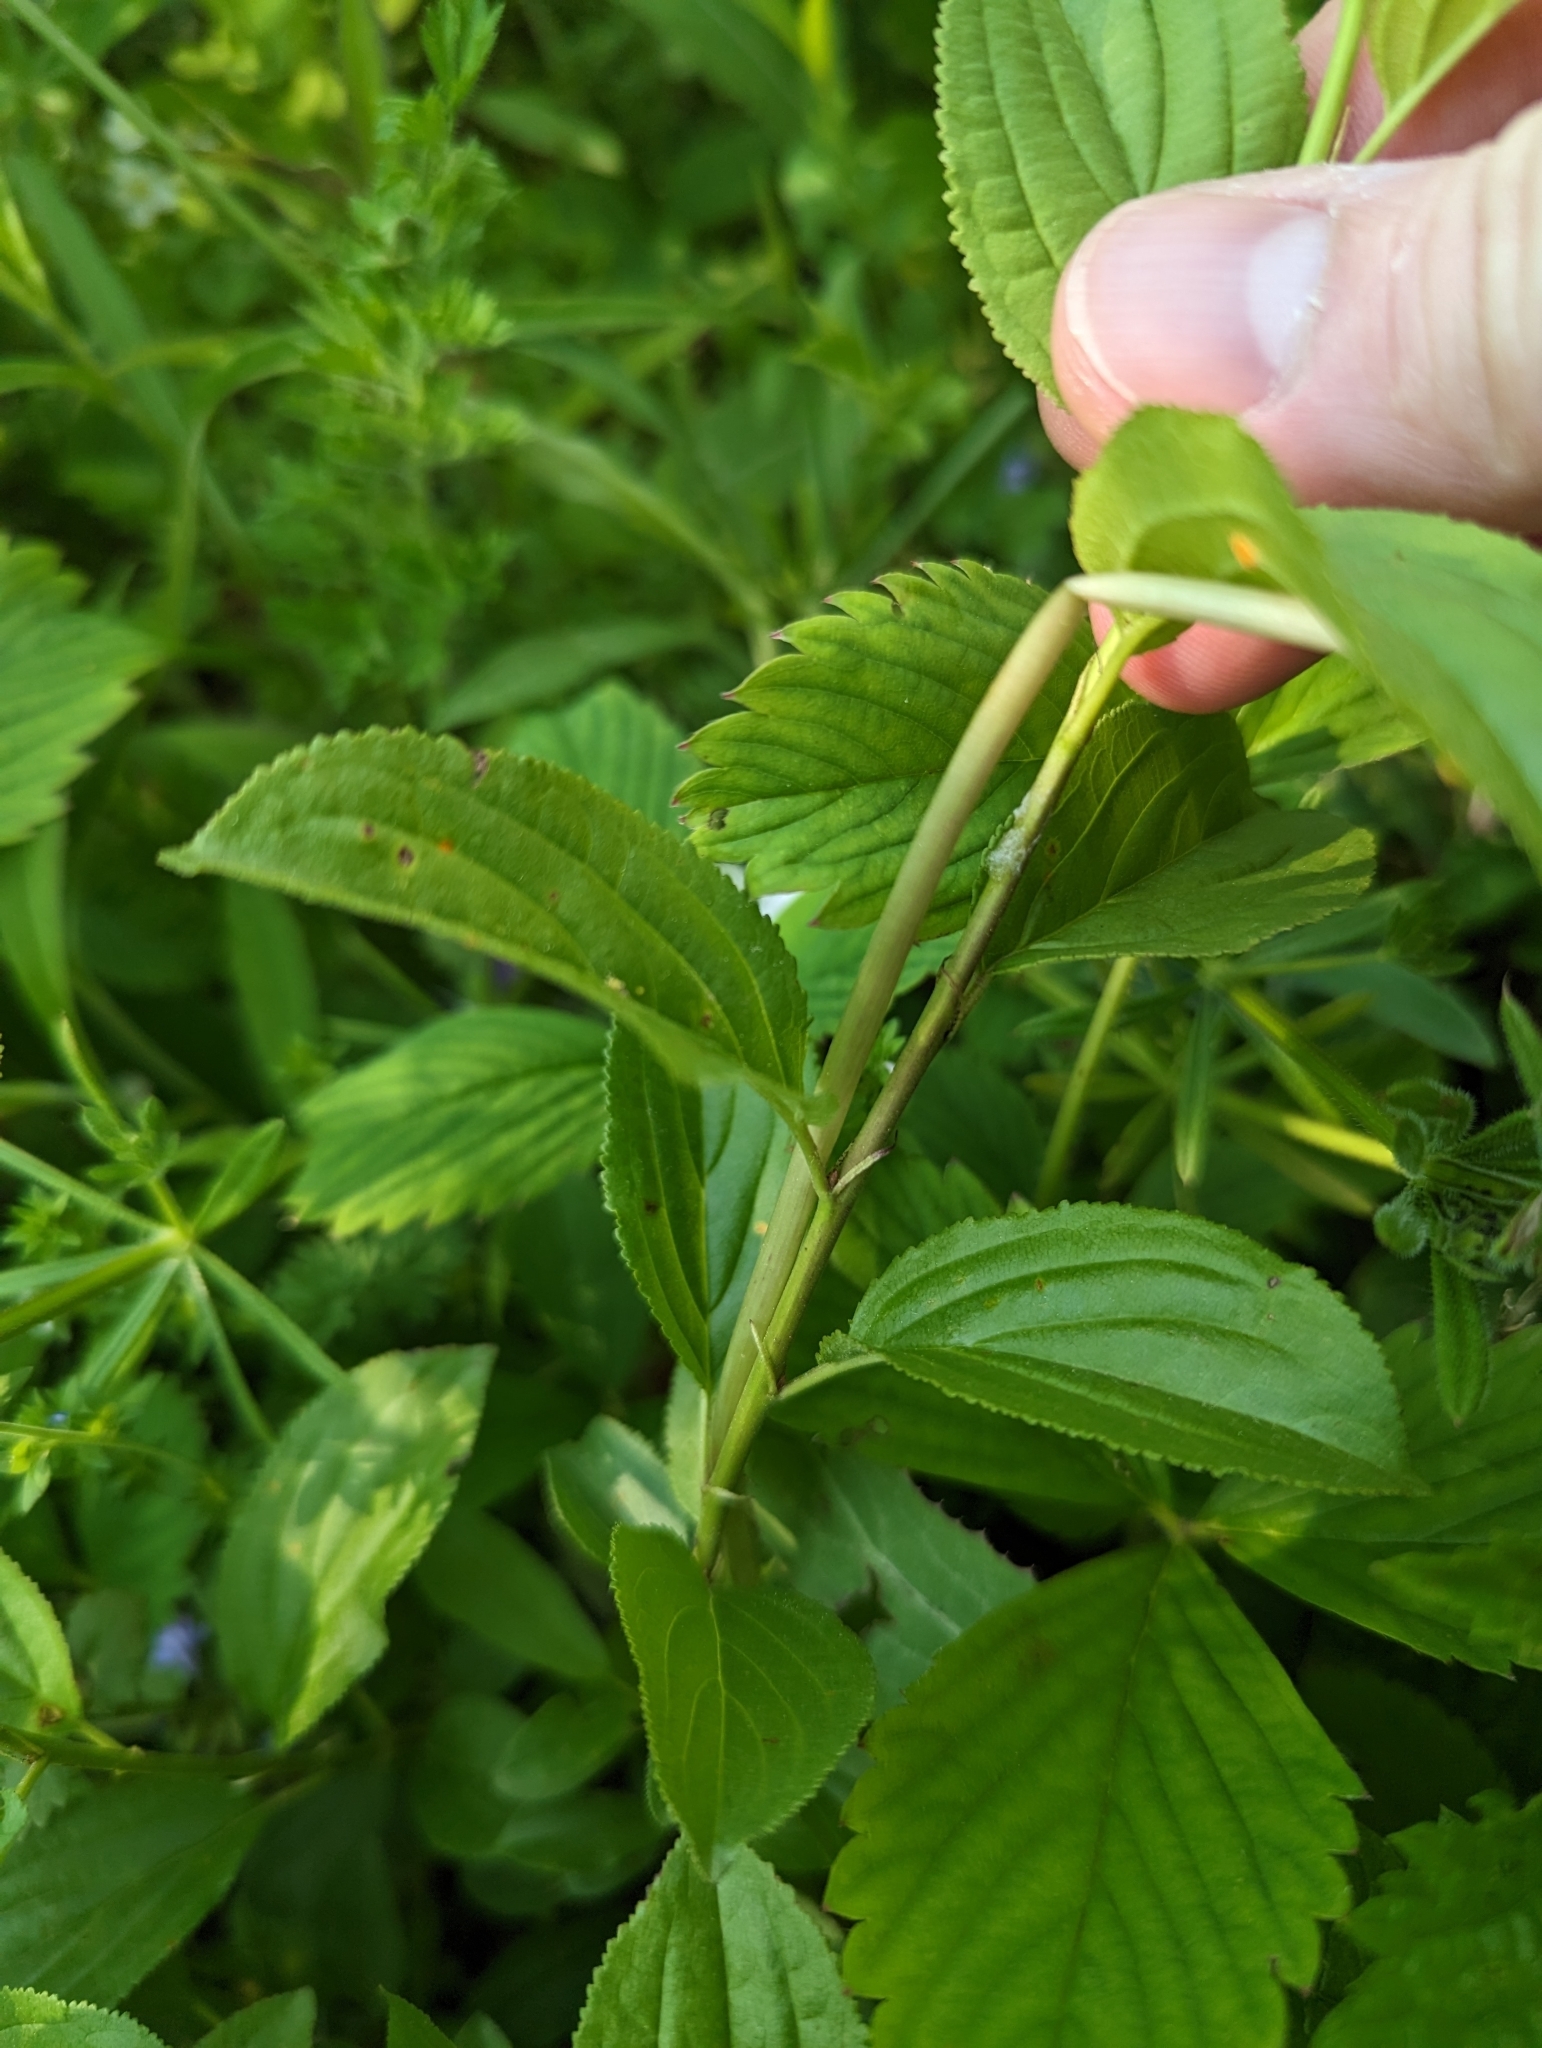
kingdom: Fungi
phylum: Basidiomycota
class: Pucciniomycetes
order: Pucciniales
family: Pucciniaceae
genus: Puccinia
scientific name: Puccinia coronata
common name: Crown rust
